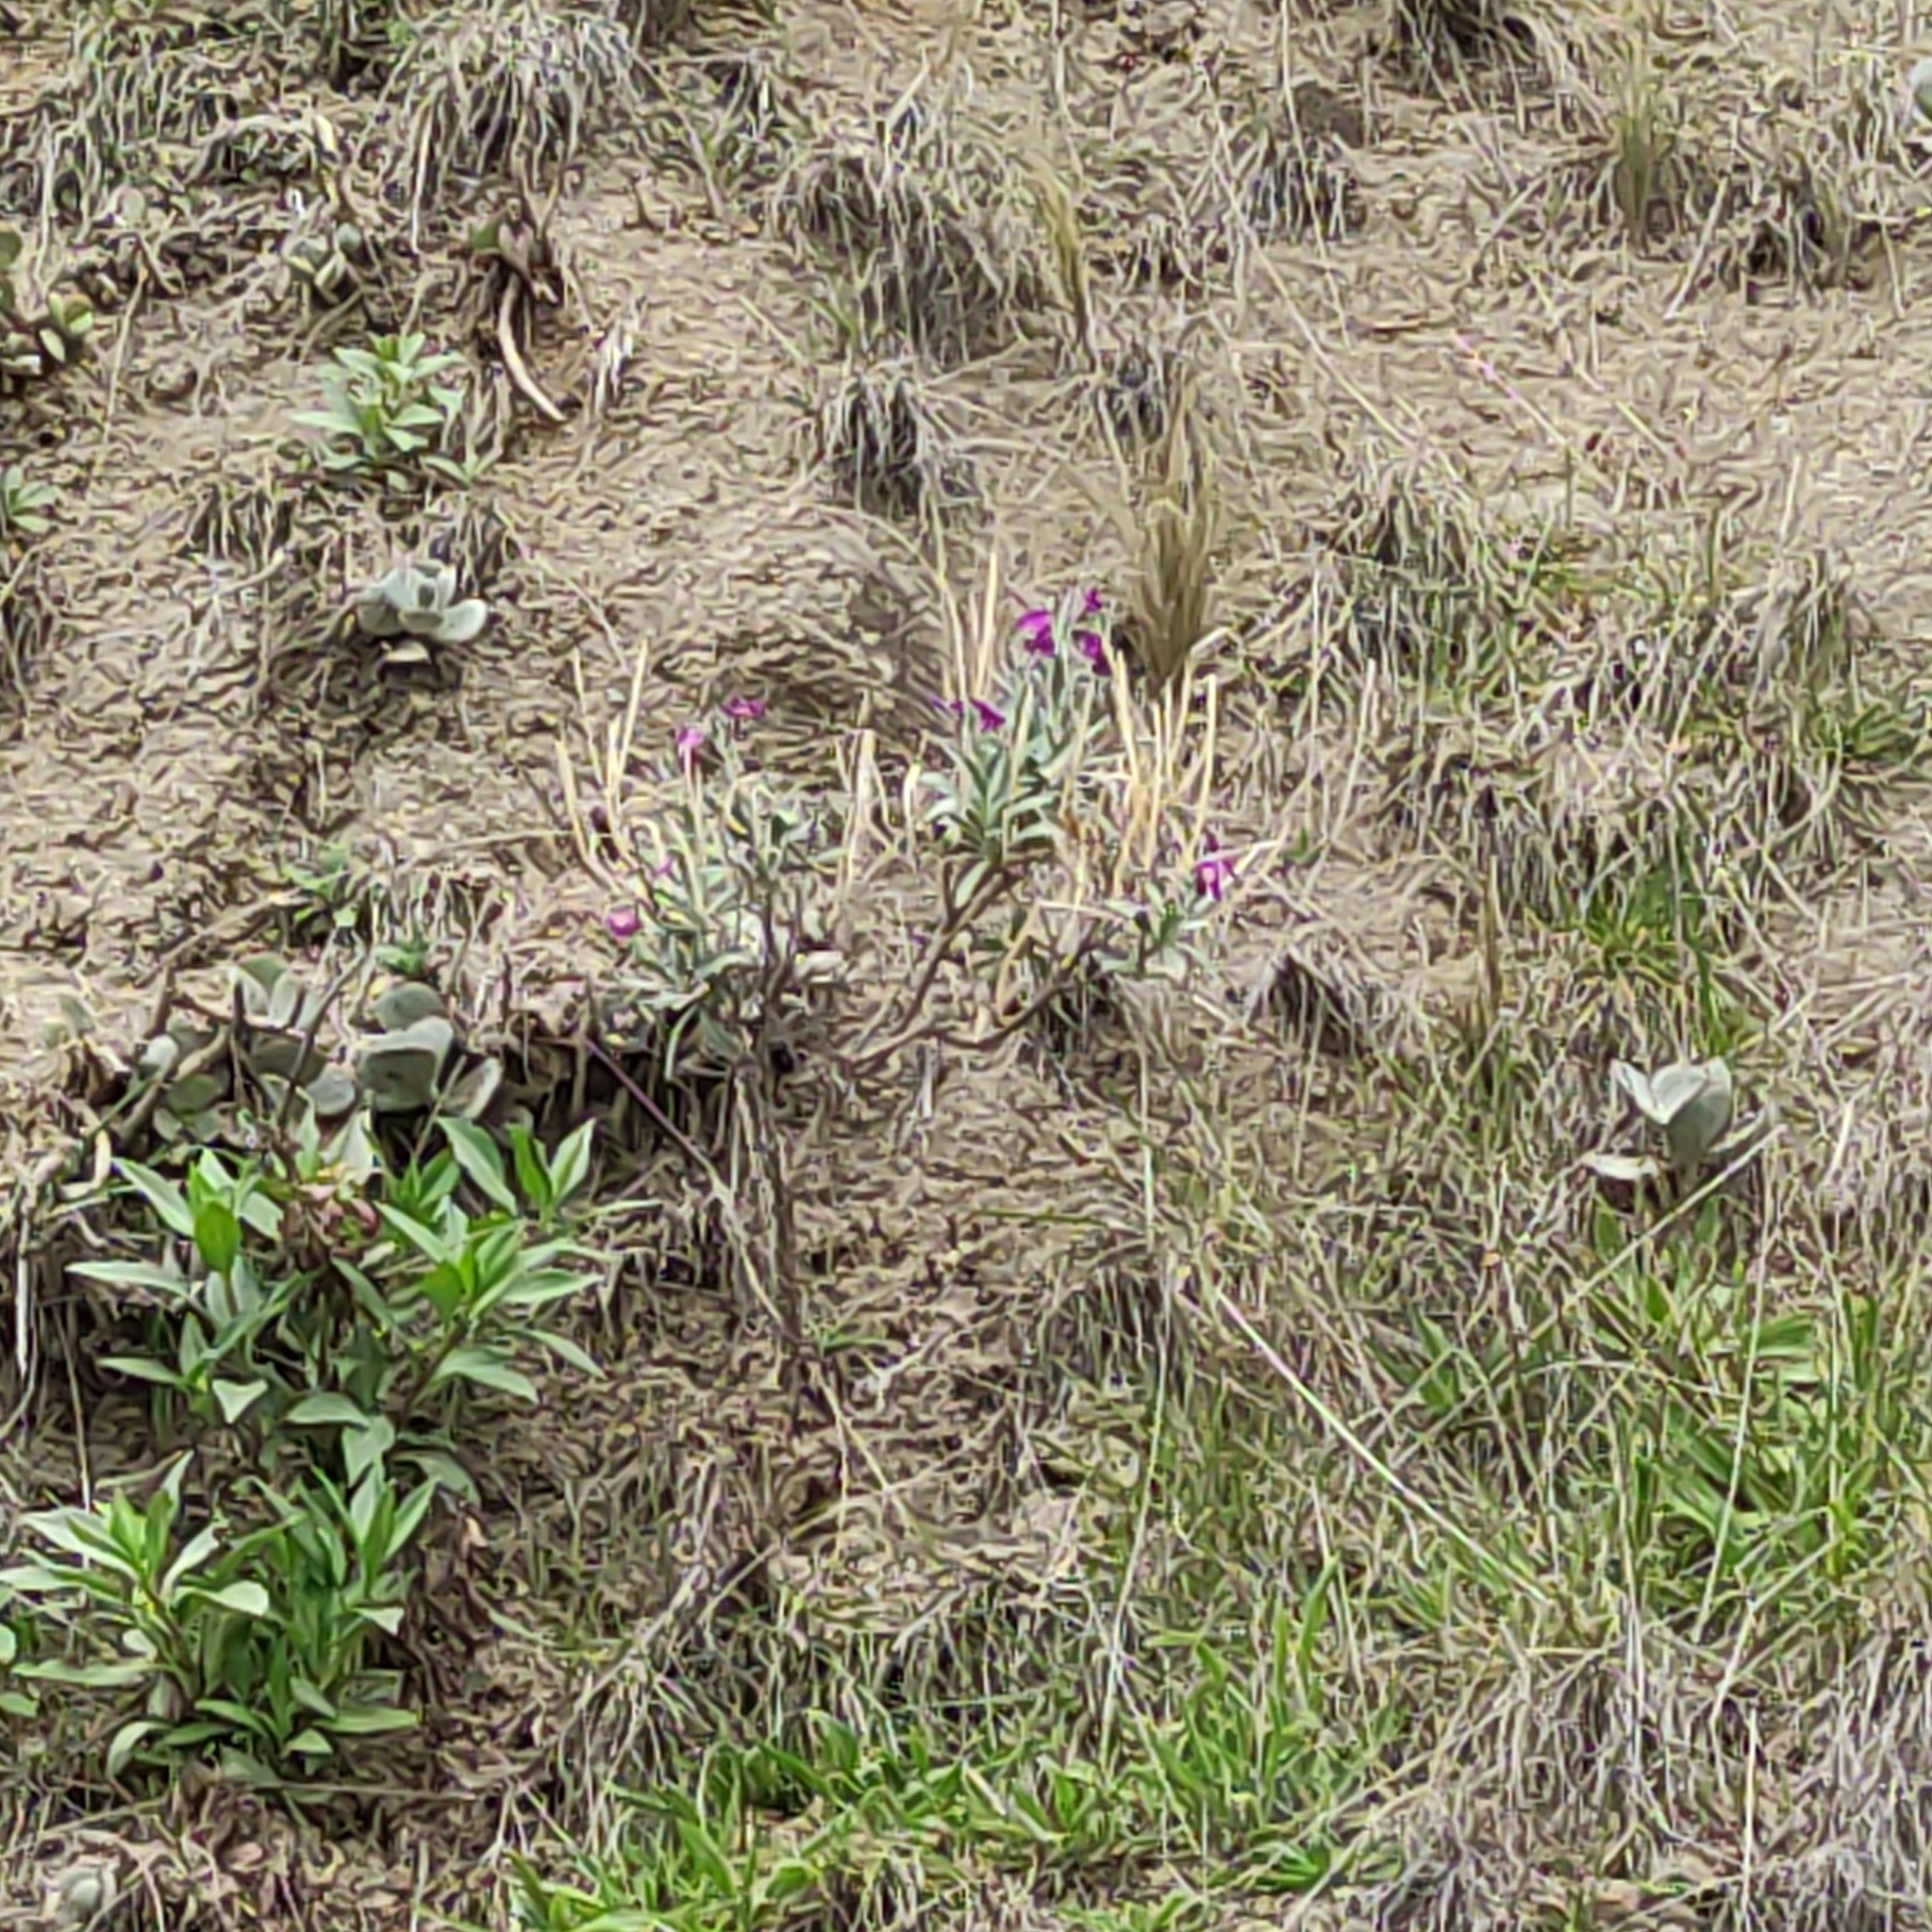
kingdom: Plantae
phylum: Tracheophyta
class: Magnoliopsida
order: Brassicales
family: Brassicaceae
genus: Matthiola
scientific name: Matthiola incana
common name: Hoary stock
